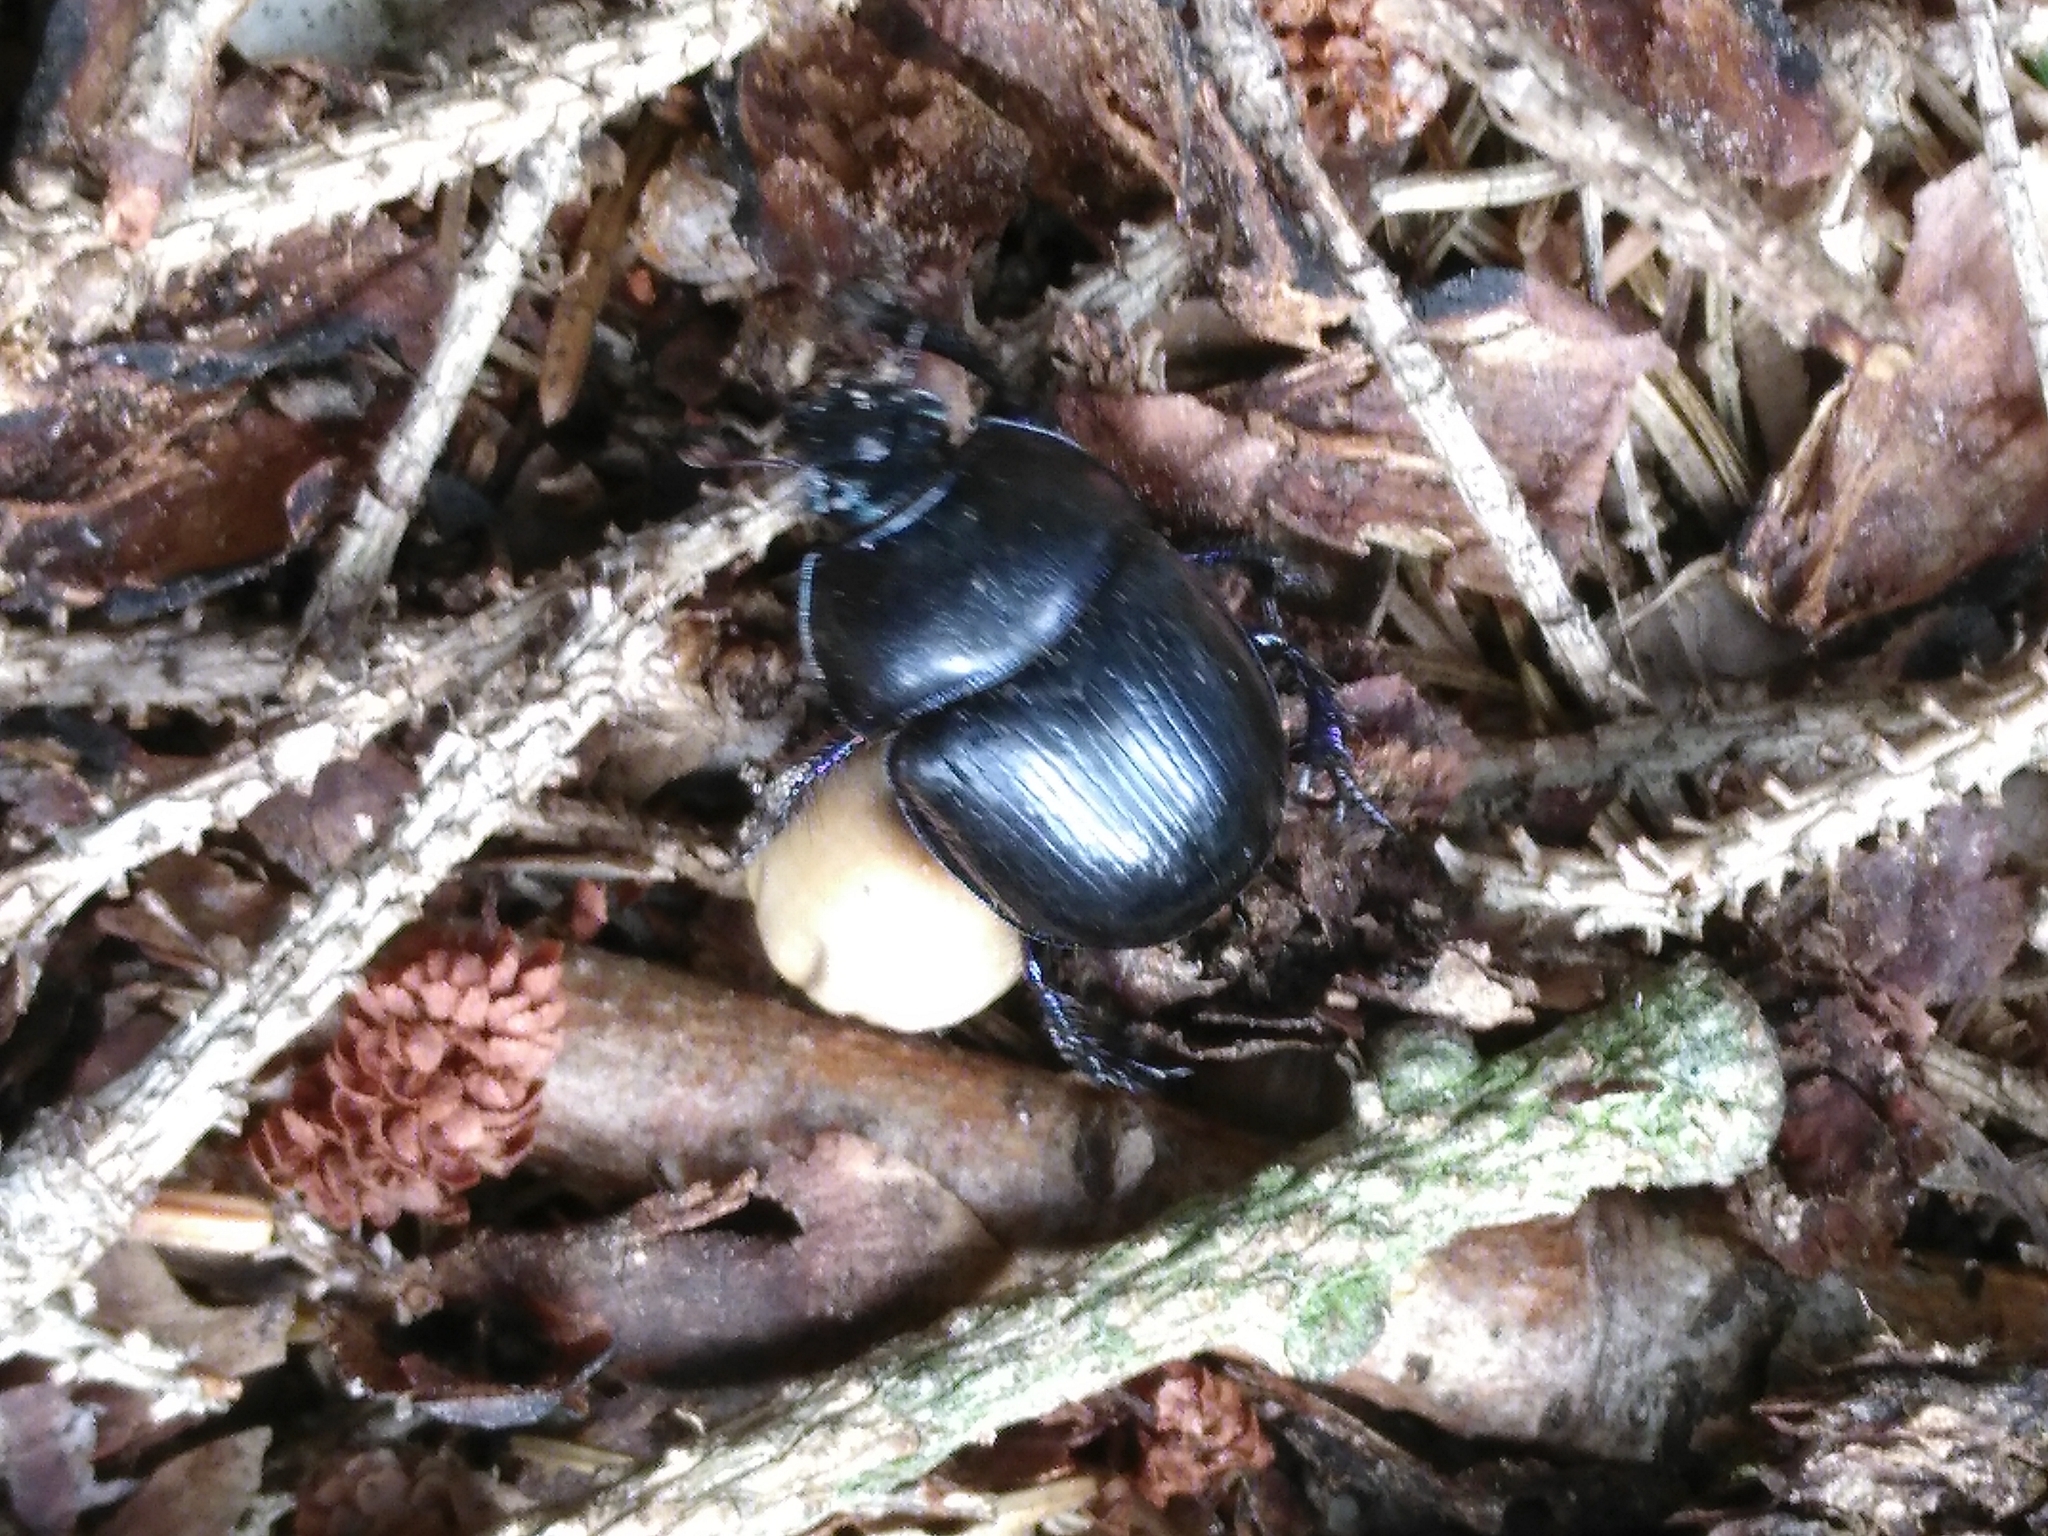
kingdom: Animalia
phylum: Arthropoda
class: Insecta
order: Coleoptera
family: Geotrupidae
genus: Anoplotrupes
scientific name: Anoplotrupes stercorosus
